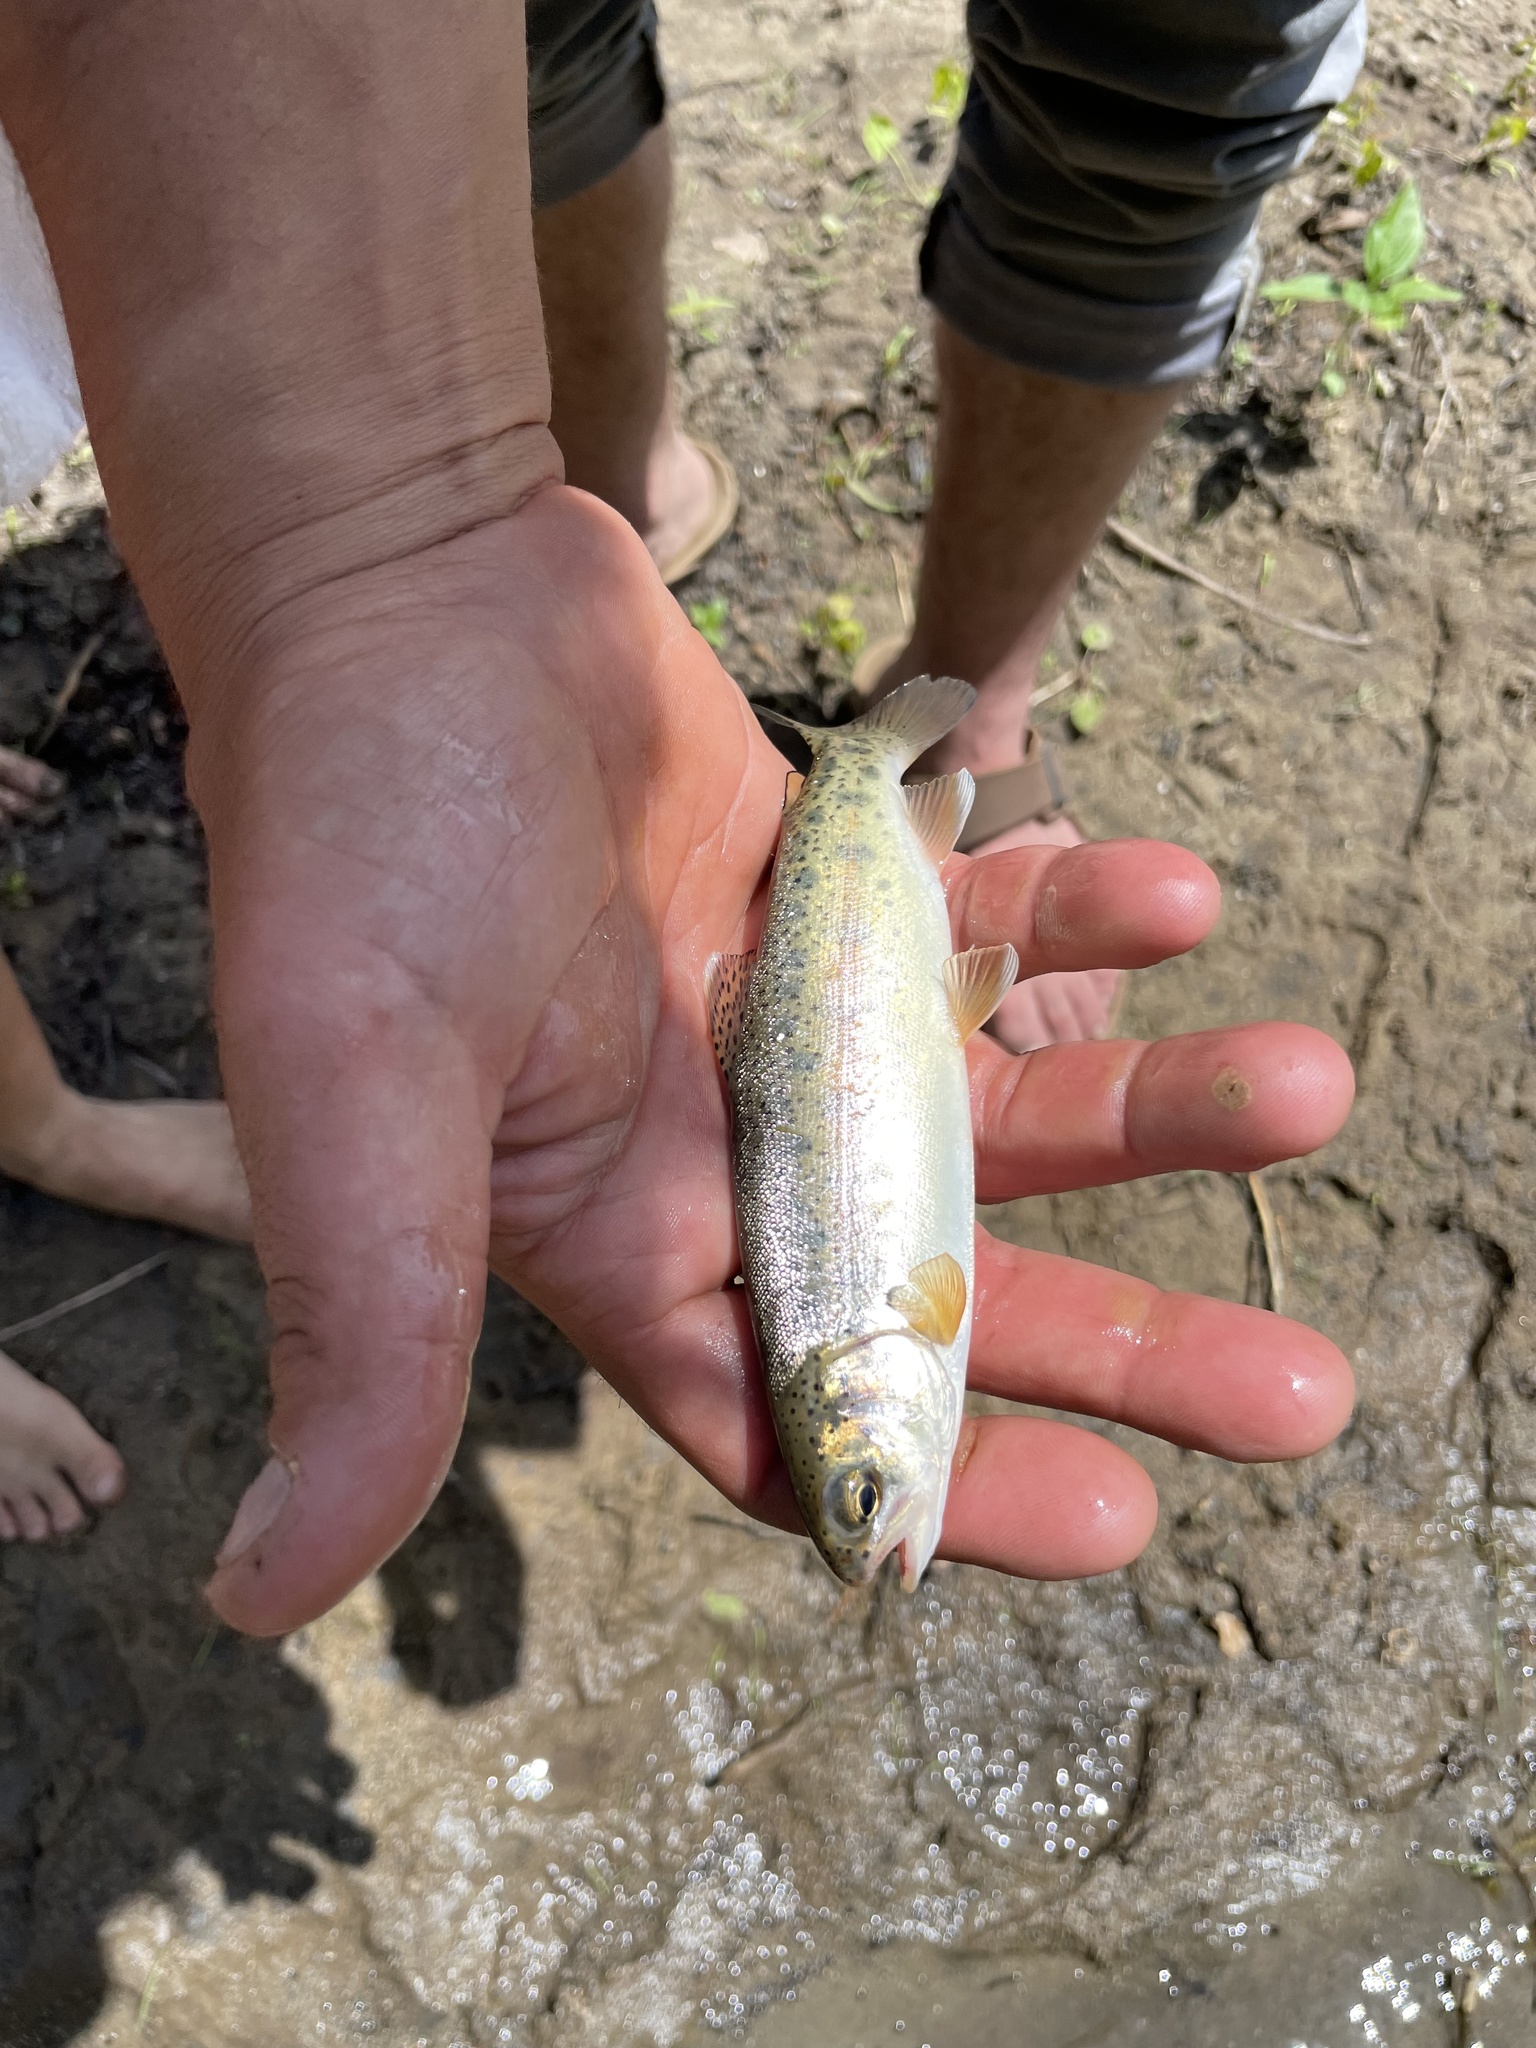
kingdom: Animalia
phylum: Chordata
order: Salmoniformes
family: Salmonidae
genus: Oncorhynchus
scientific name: Oncorhynchus mykiss
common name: Rainbow trout
